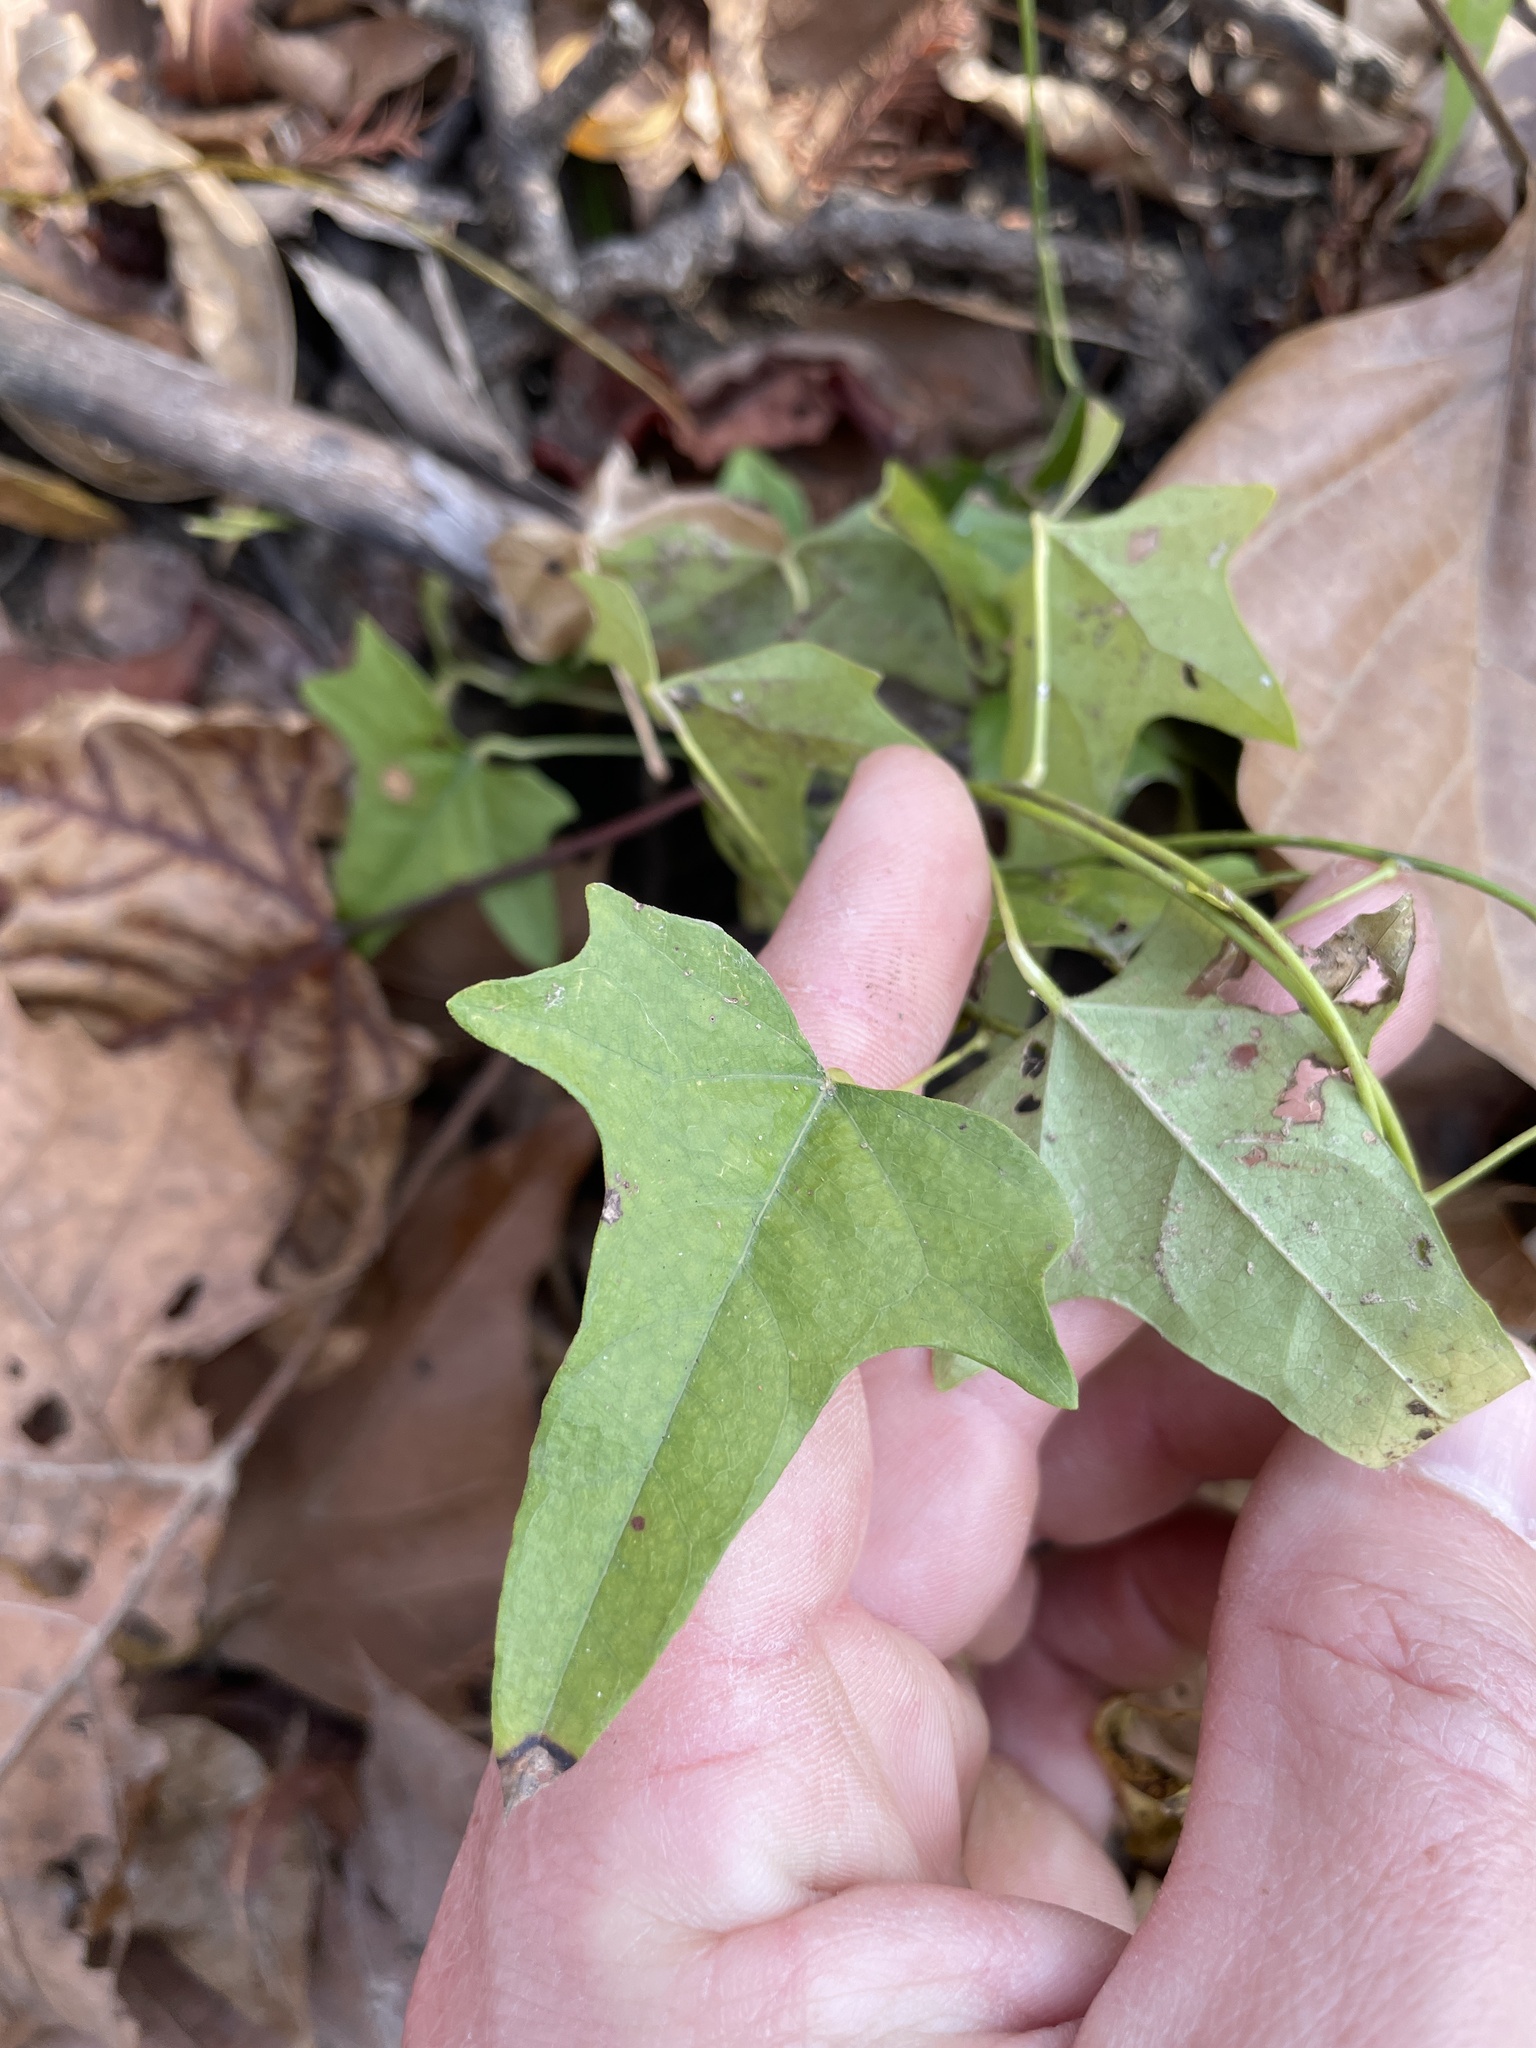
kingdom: Plantae
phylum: Tracheophyta
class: Magnoliopsida
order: Ranunculales
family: Menispermaceae
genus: Cocculus
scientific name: Cocculus carolinus
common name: Carolina moonseed
